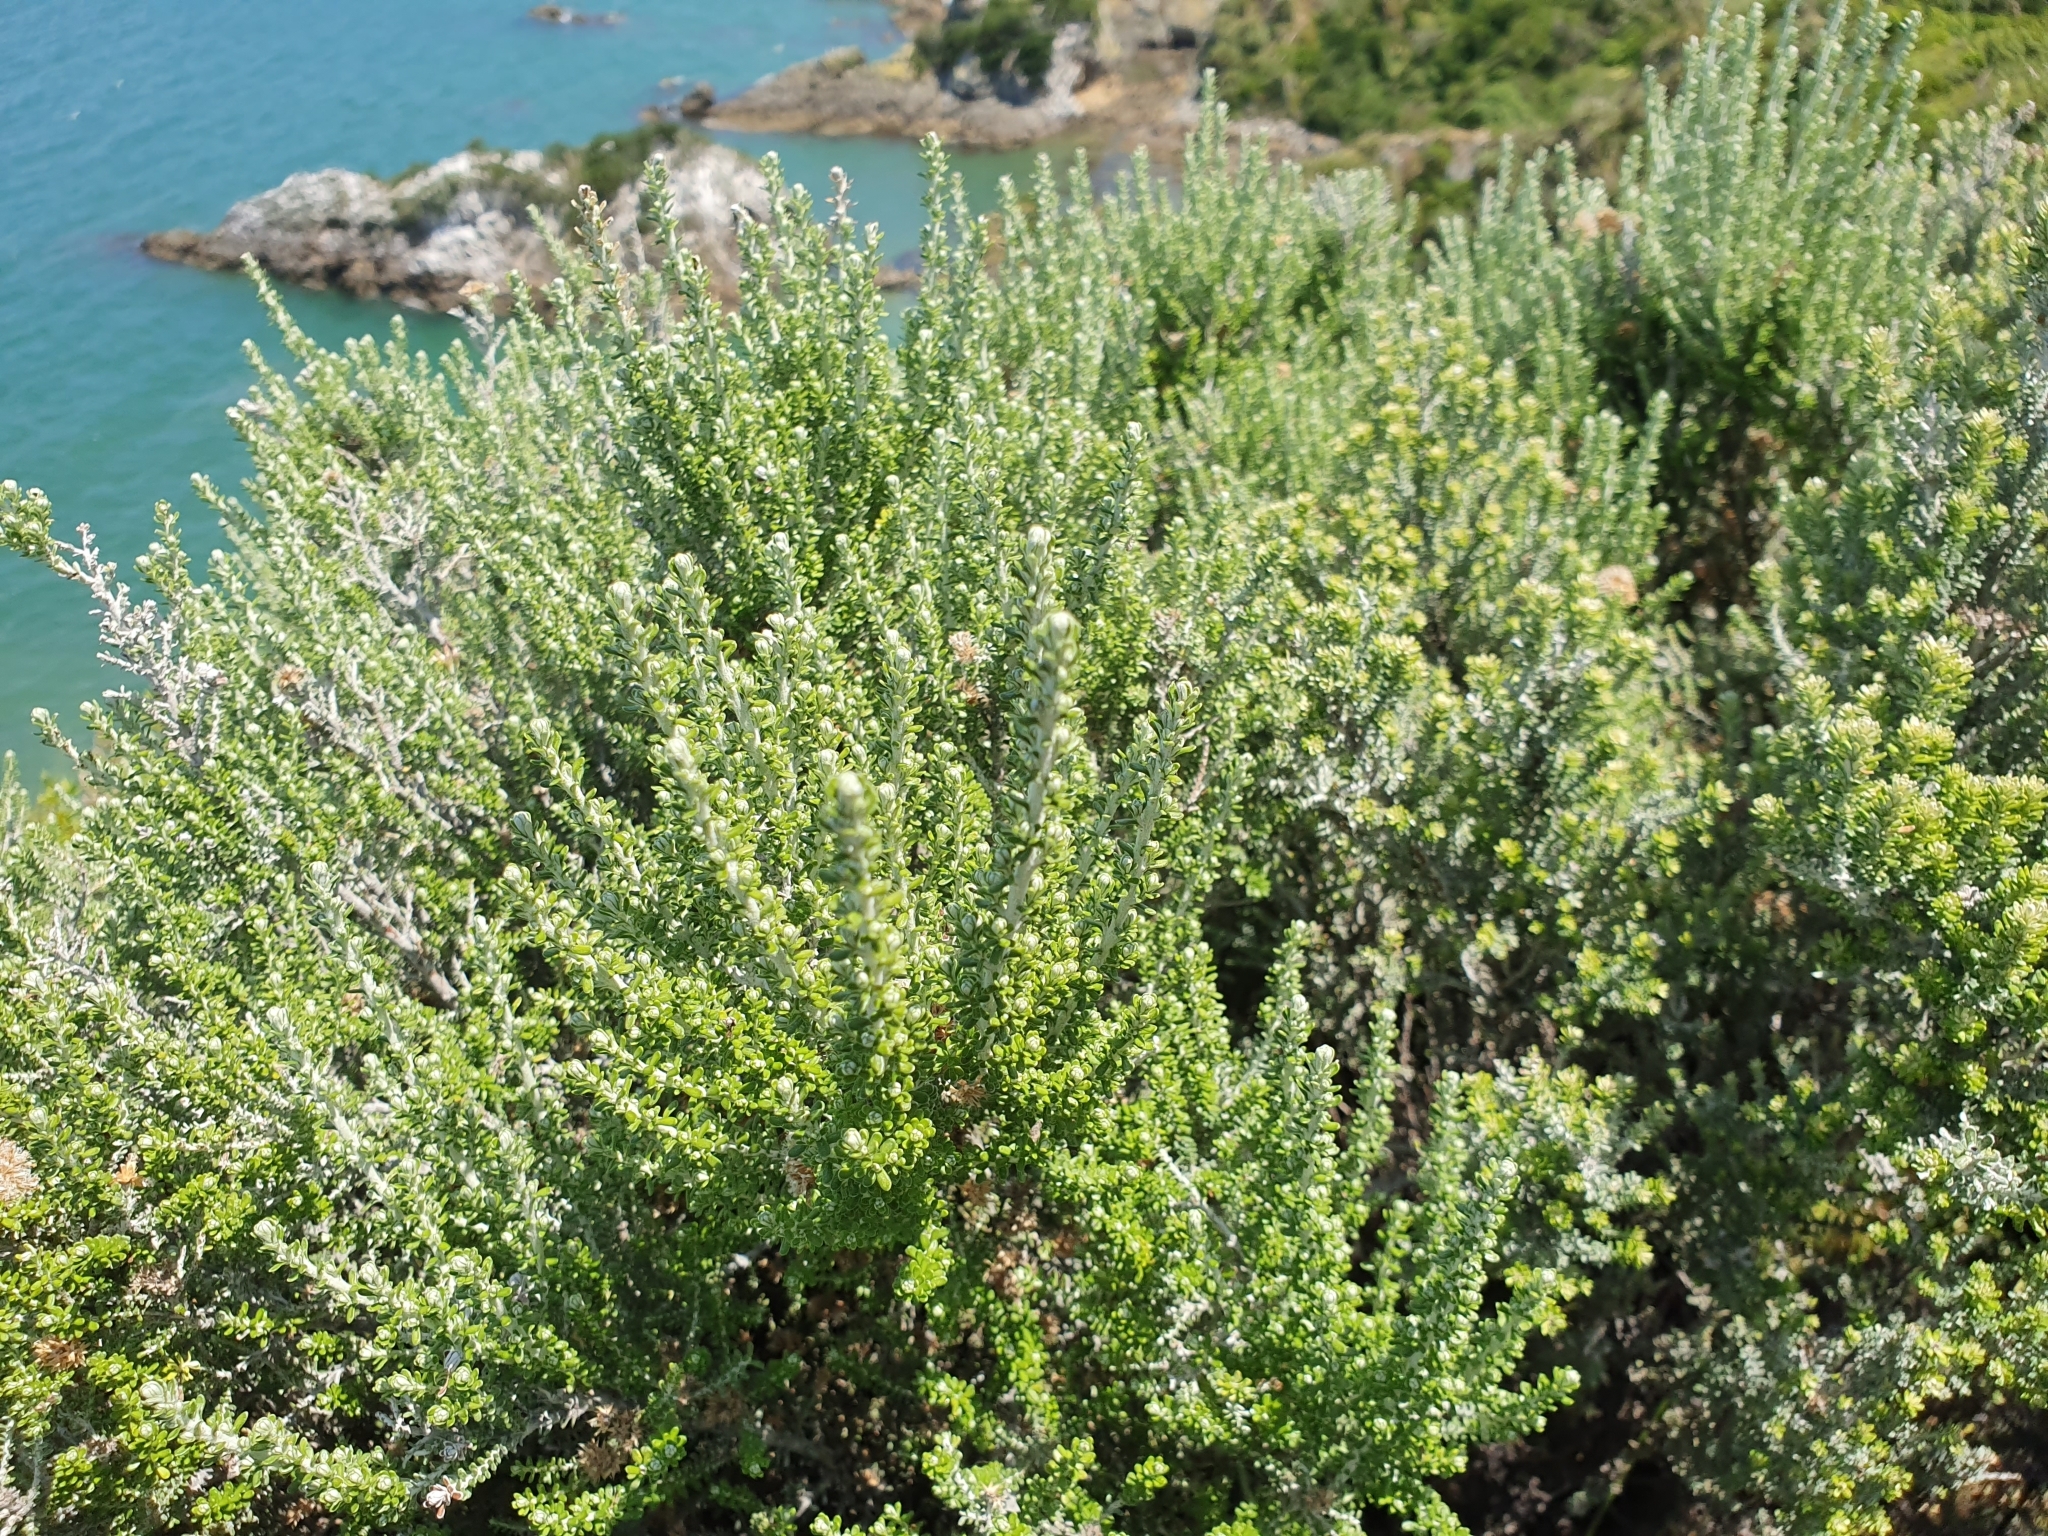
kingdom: Plantae
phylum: Tracheophyta
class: Magnoliopsida
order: Asterales
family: Asteraceae
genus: Ozothamnus
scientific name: Ozothamnus leptophyllus
